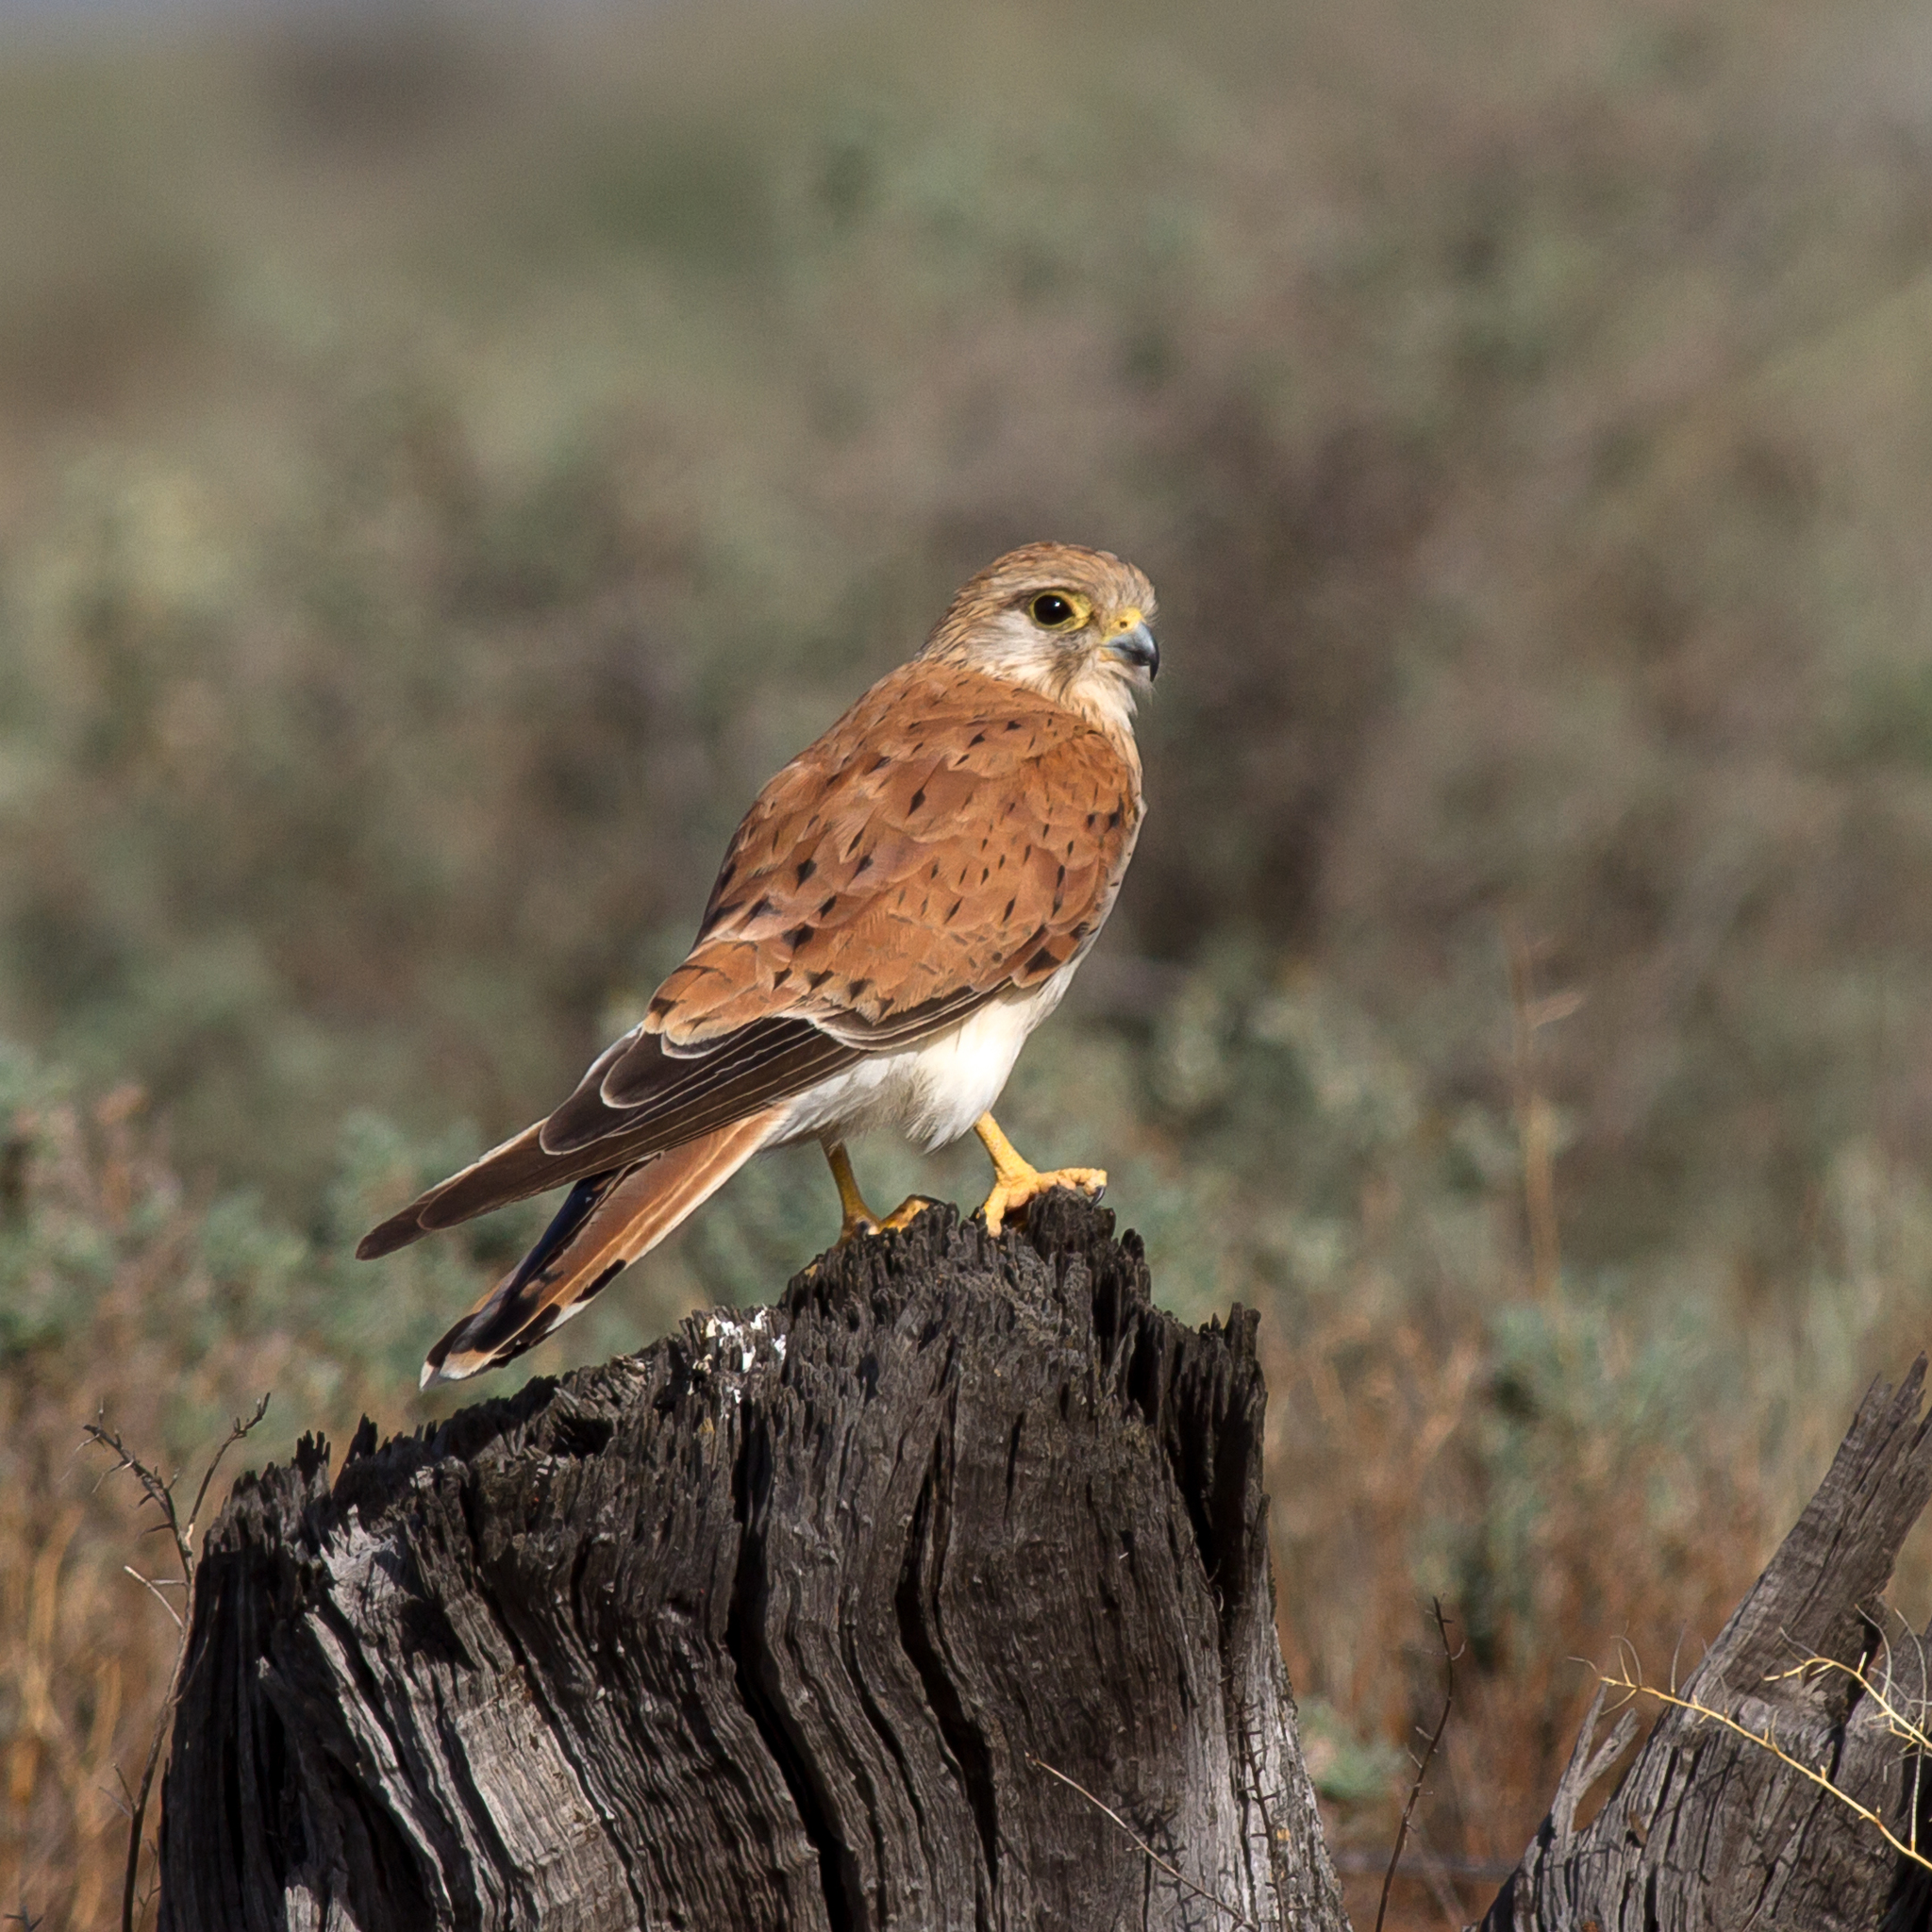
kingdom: Animalia
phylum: Chordata
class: Aves
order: Falconiformes
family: Falconidae
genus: Falco
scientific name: Falco cenchroides
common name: Nankeen kestrel
